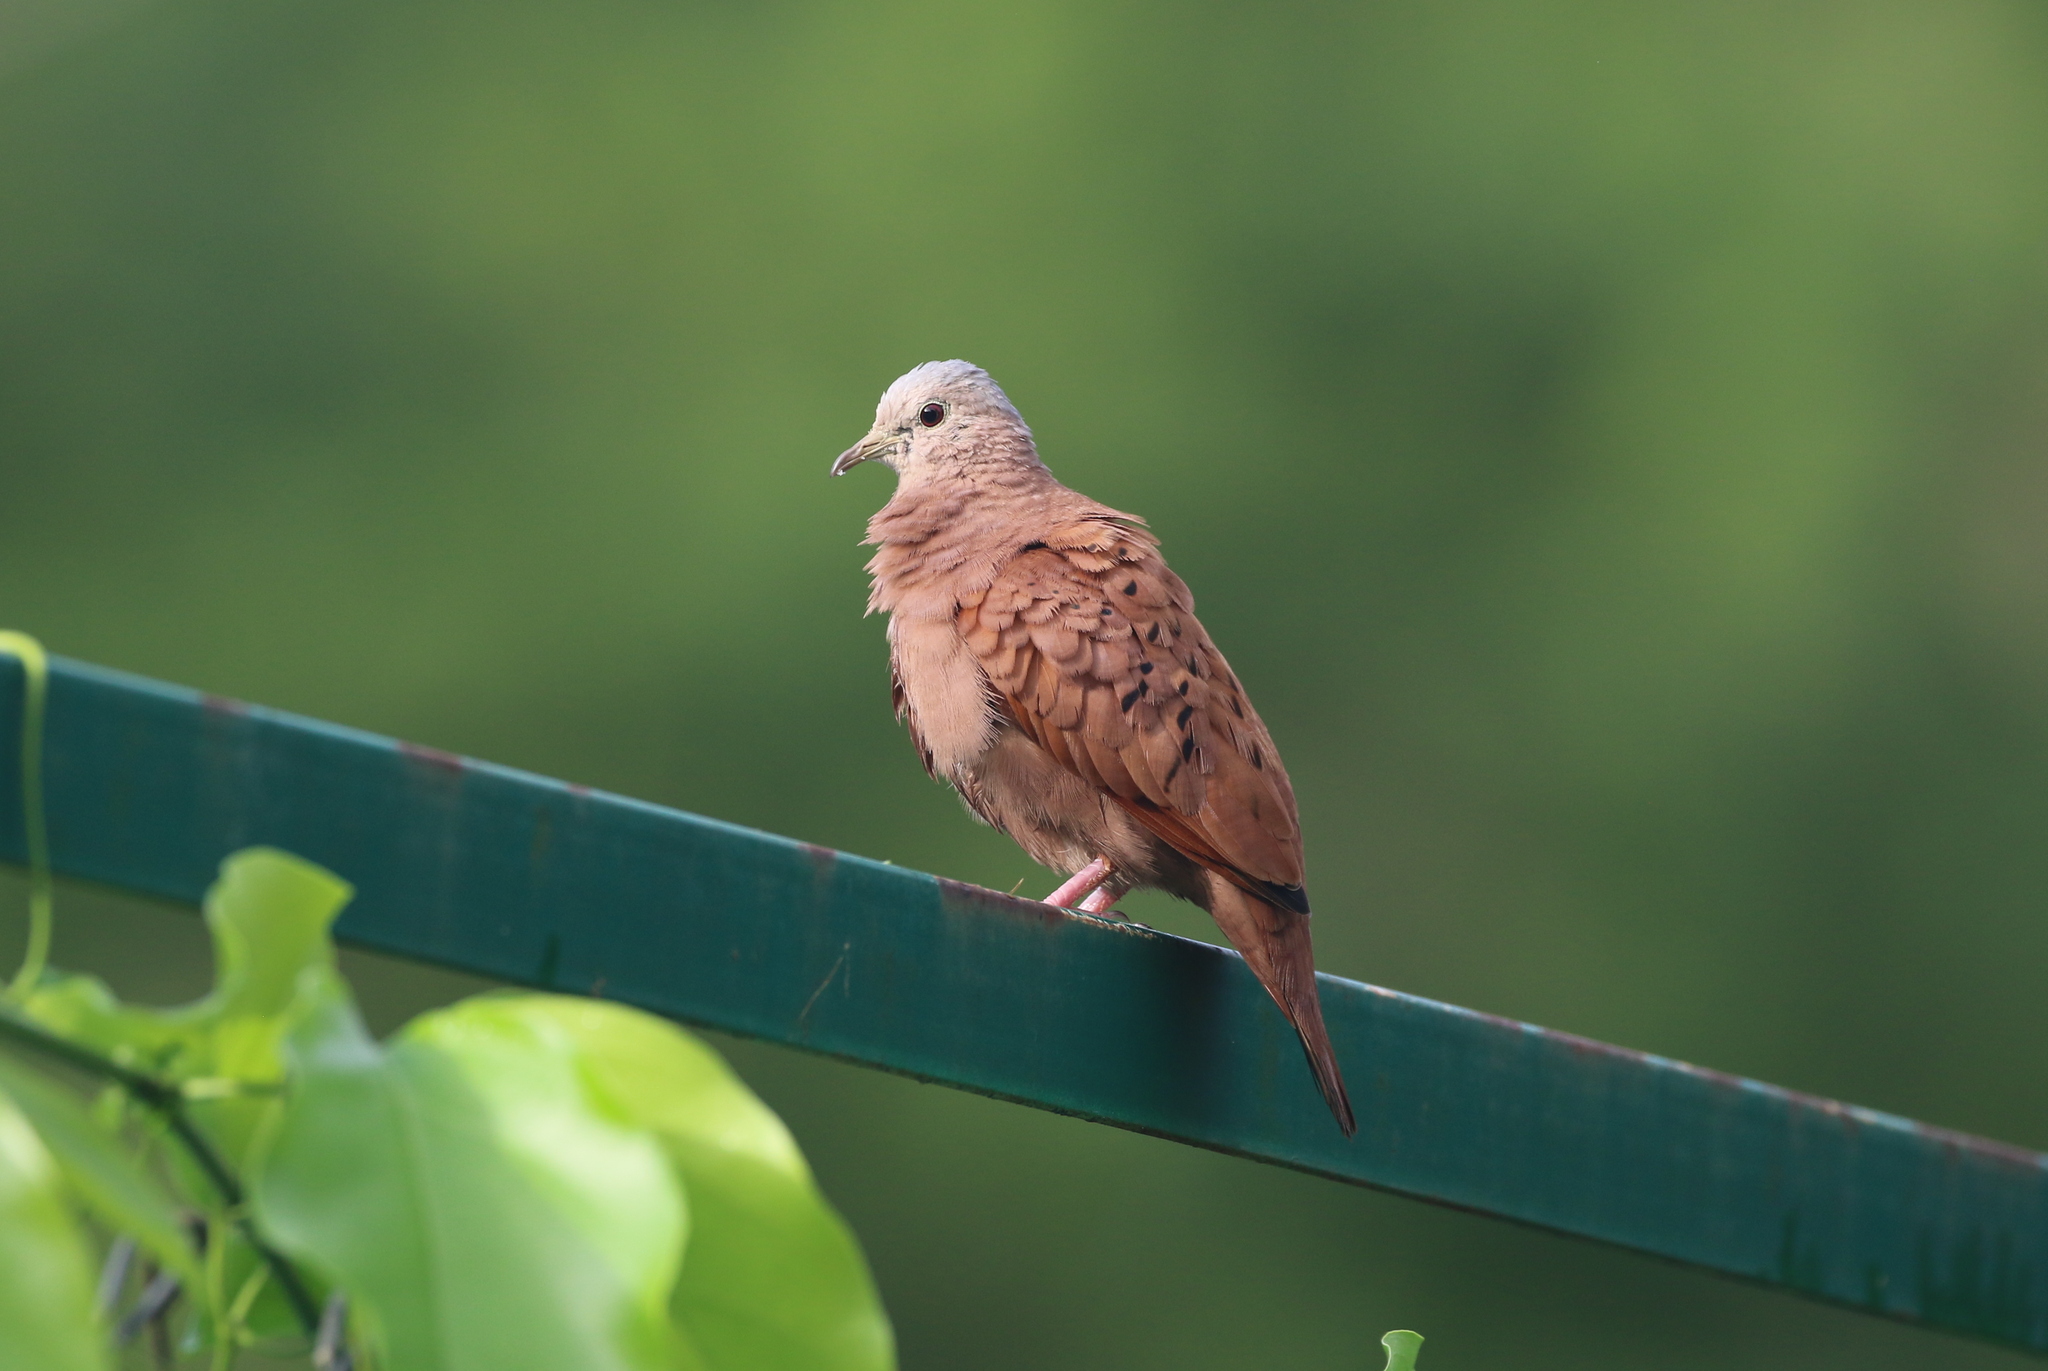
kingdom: Animalia
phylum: Chordata
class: Aves
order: Columbiformes
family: Columbidae
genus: Columbina
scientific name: Columbina talpacoti
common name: Ruddy ground dove
